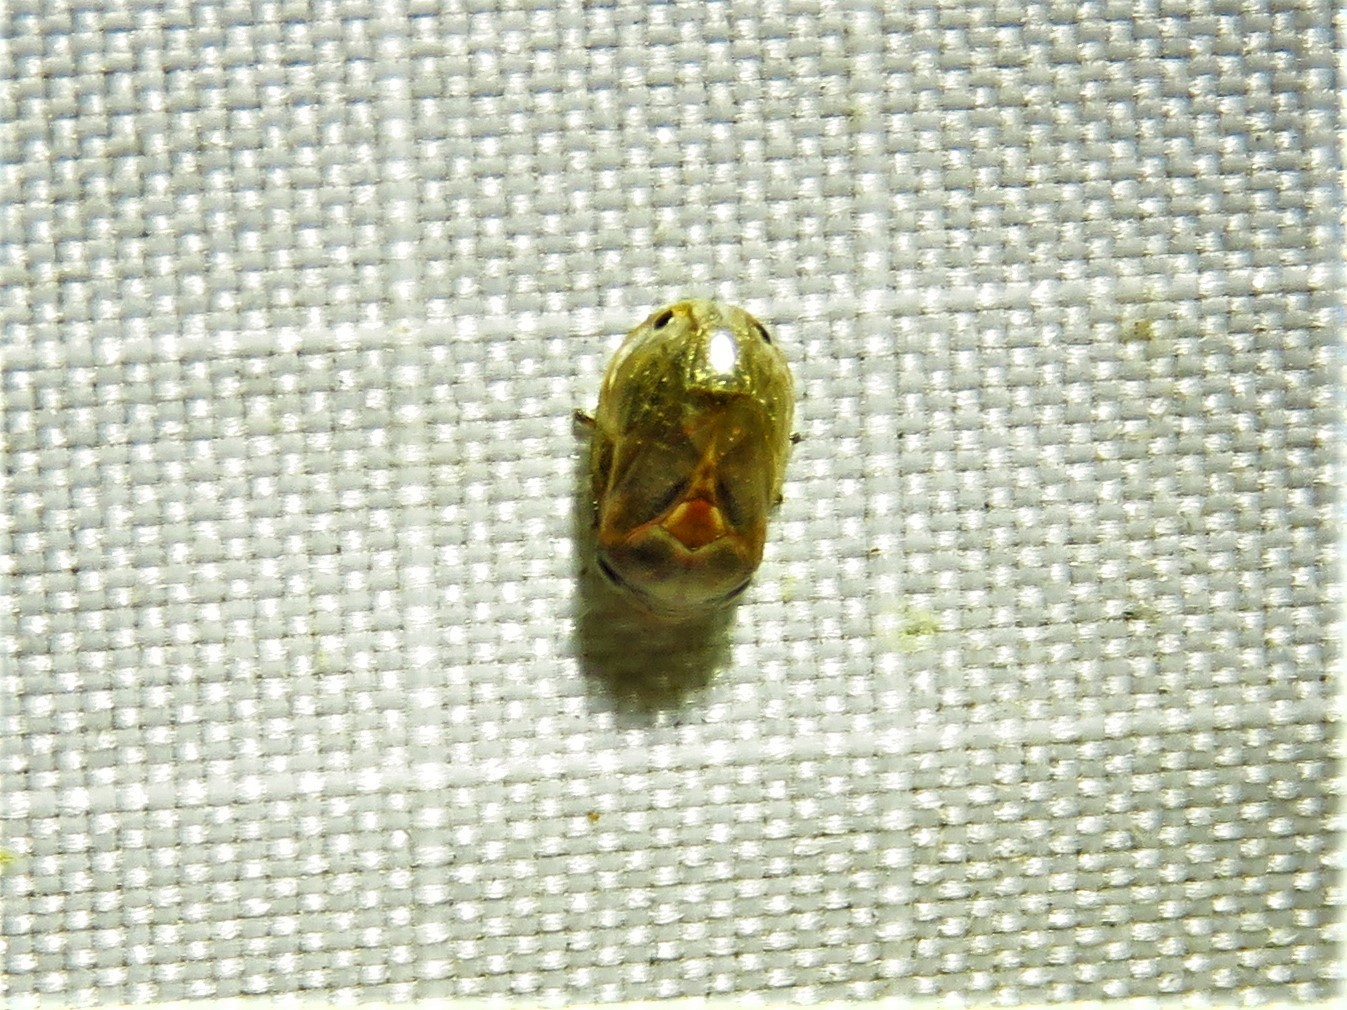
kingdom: Animalia
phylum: Arthropoda
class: Insecta
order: Hemiptera
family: Clastopteridae
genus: Clastoptera
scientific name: Clastoptera xanthocephala
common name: Sunflower spittlebug
